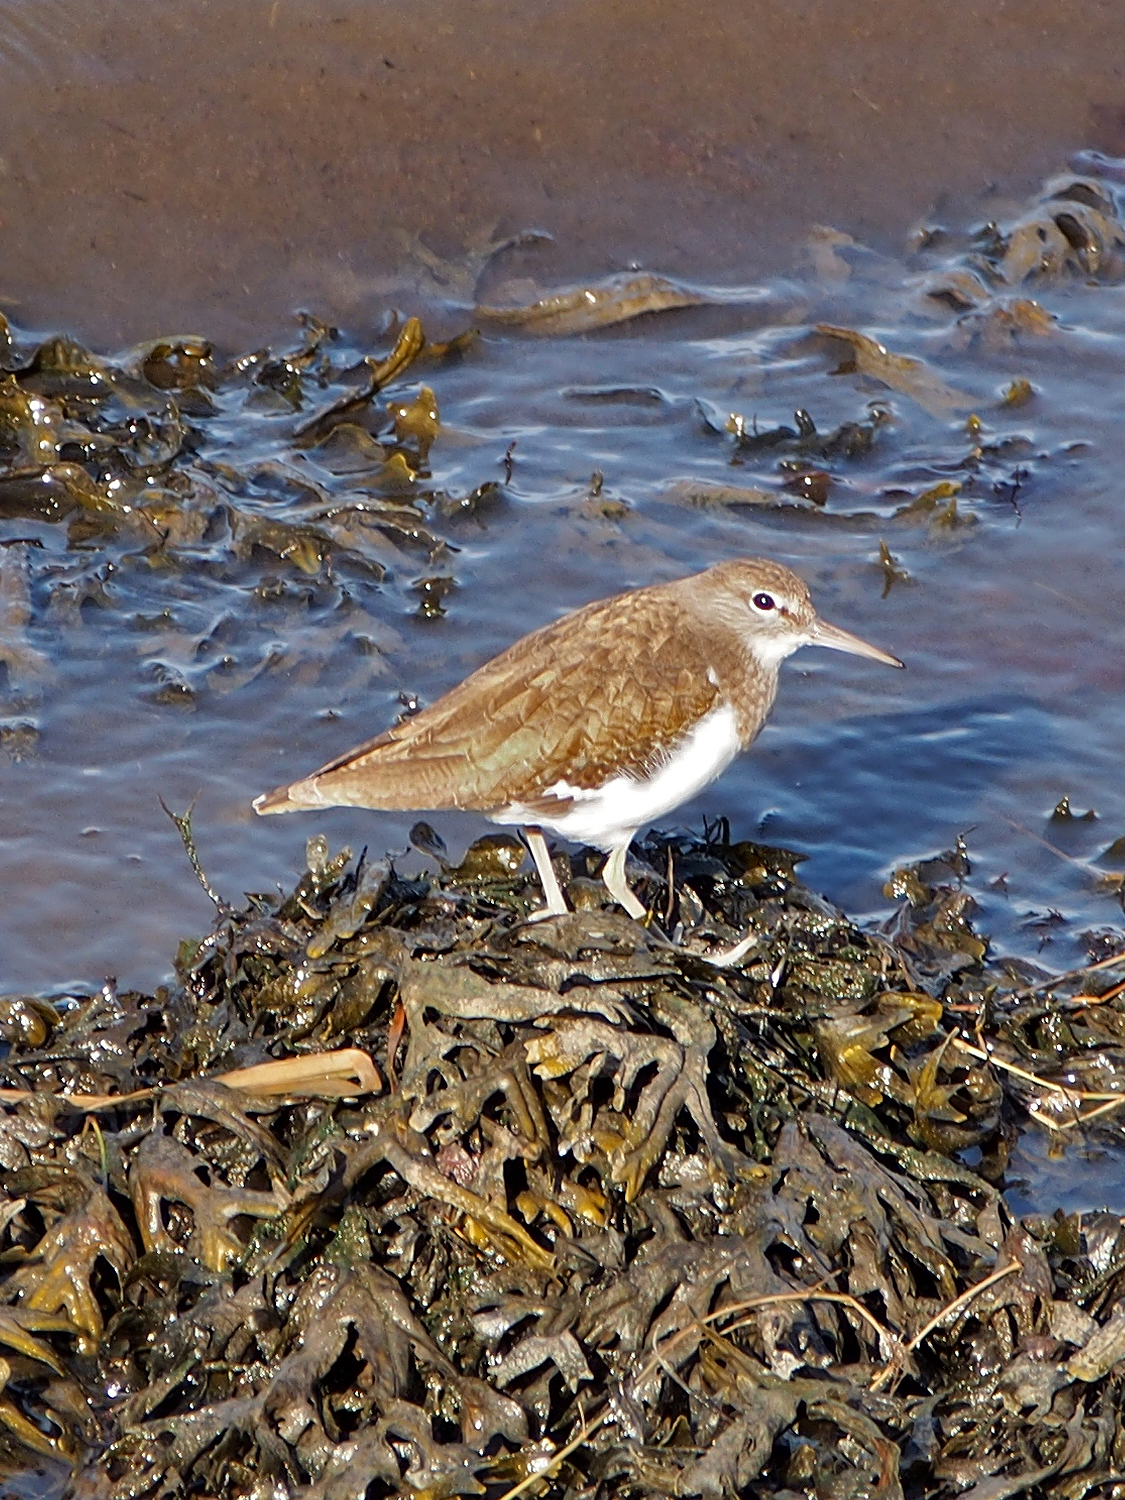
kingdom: Animalia
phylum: Chordata
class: Aves
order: Charadriiformes
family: Scolopacidae
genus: Actitis
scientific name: Actitis hypoleucos
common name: Common sandpiper
